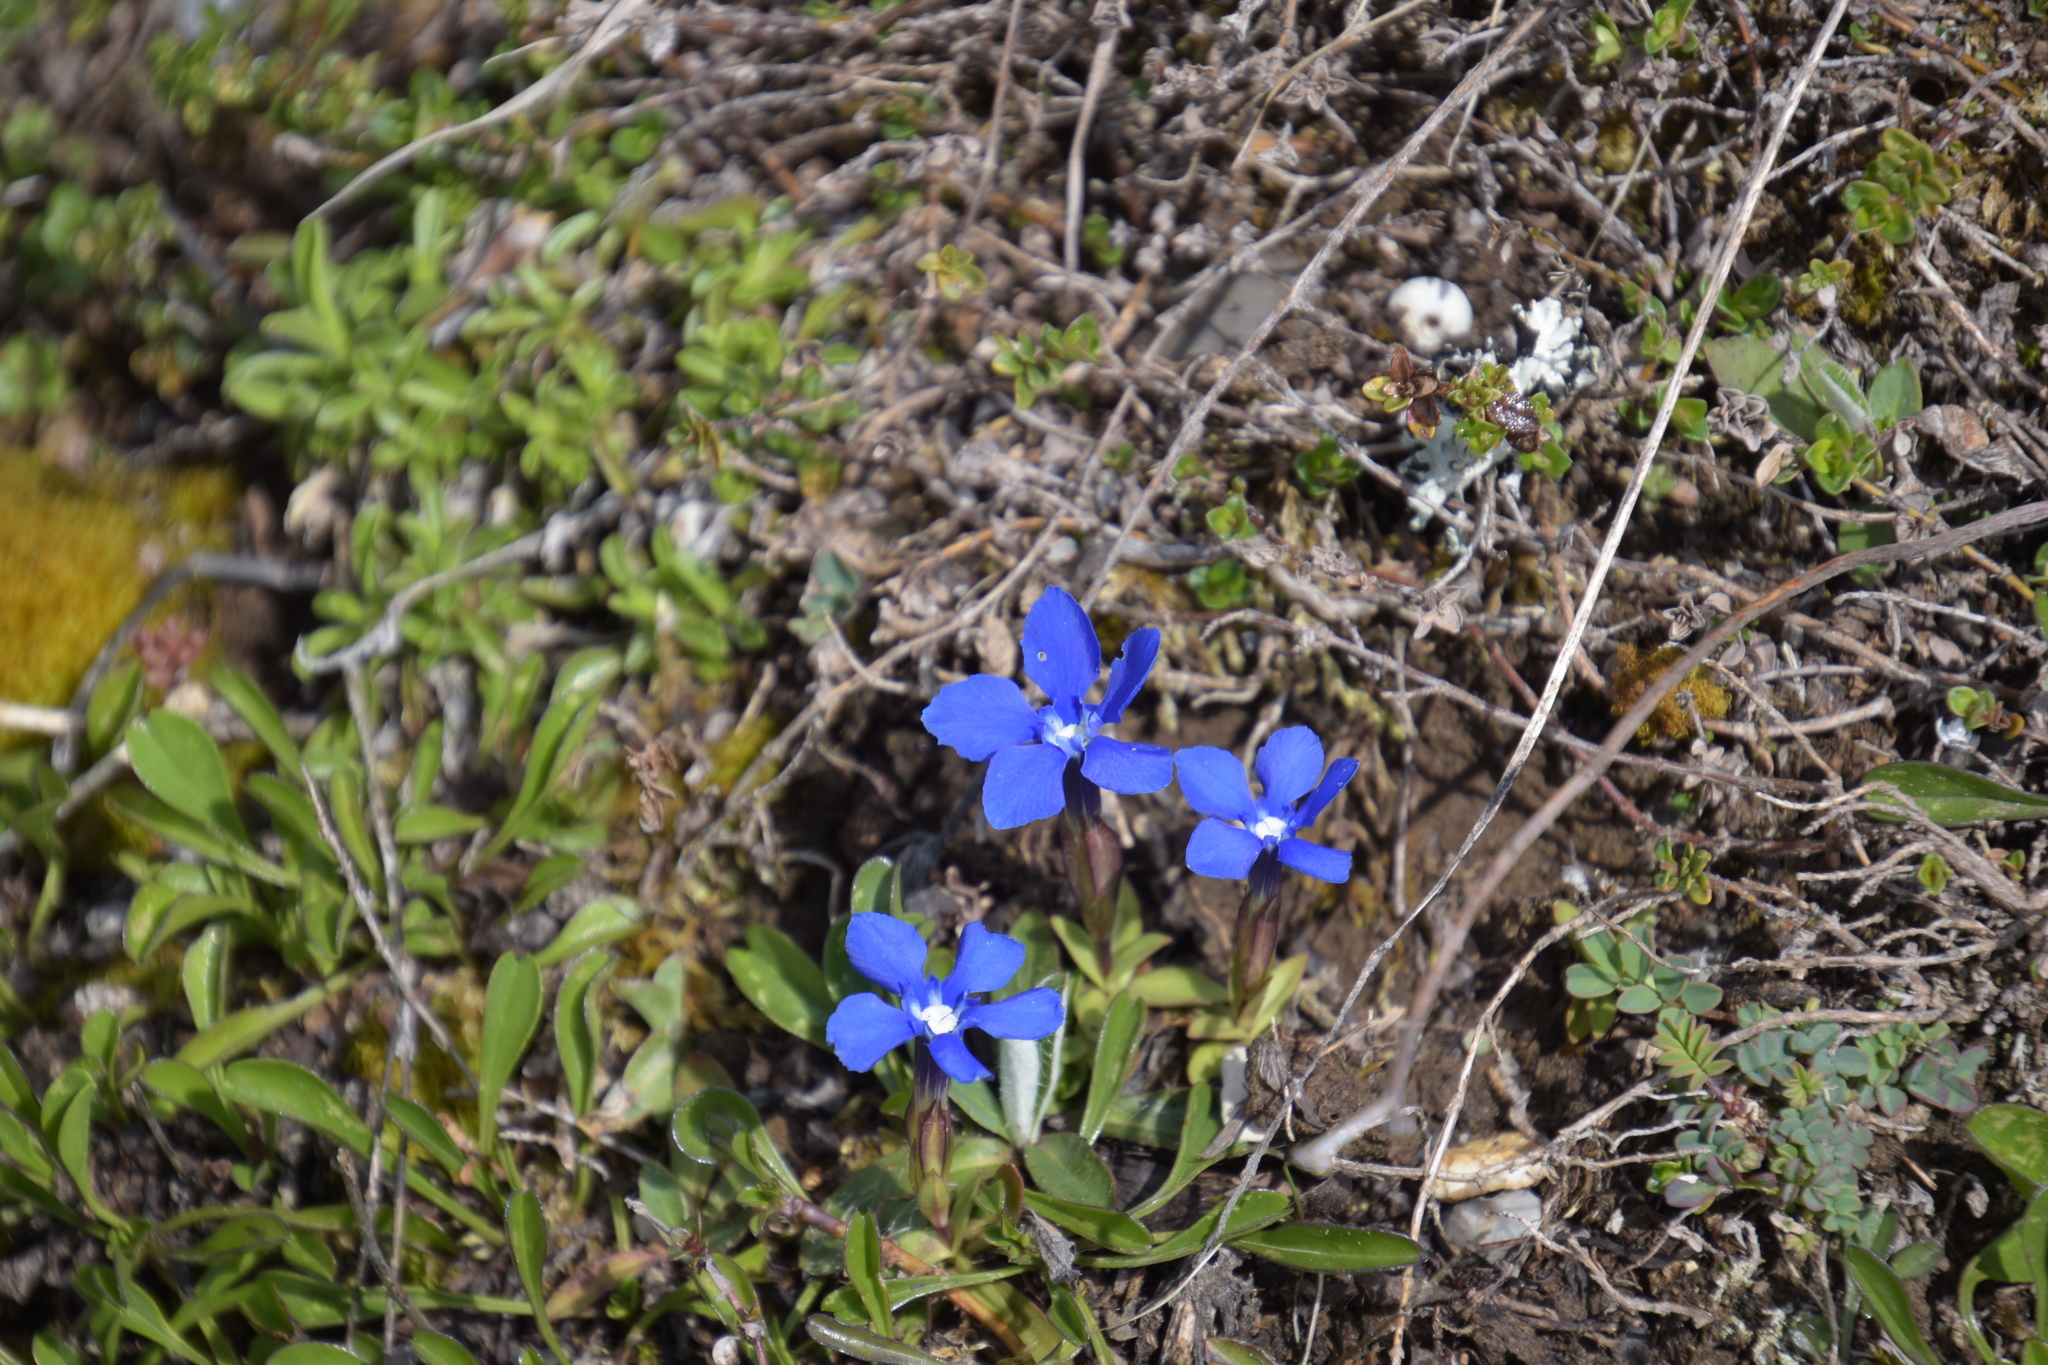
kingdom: Plantae
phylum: Tracheophyta
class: Magnoliopsida
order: Gentianales
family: Gentianaceae
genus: Gentiana
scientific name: Gentiana verna
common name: Spring gentian
